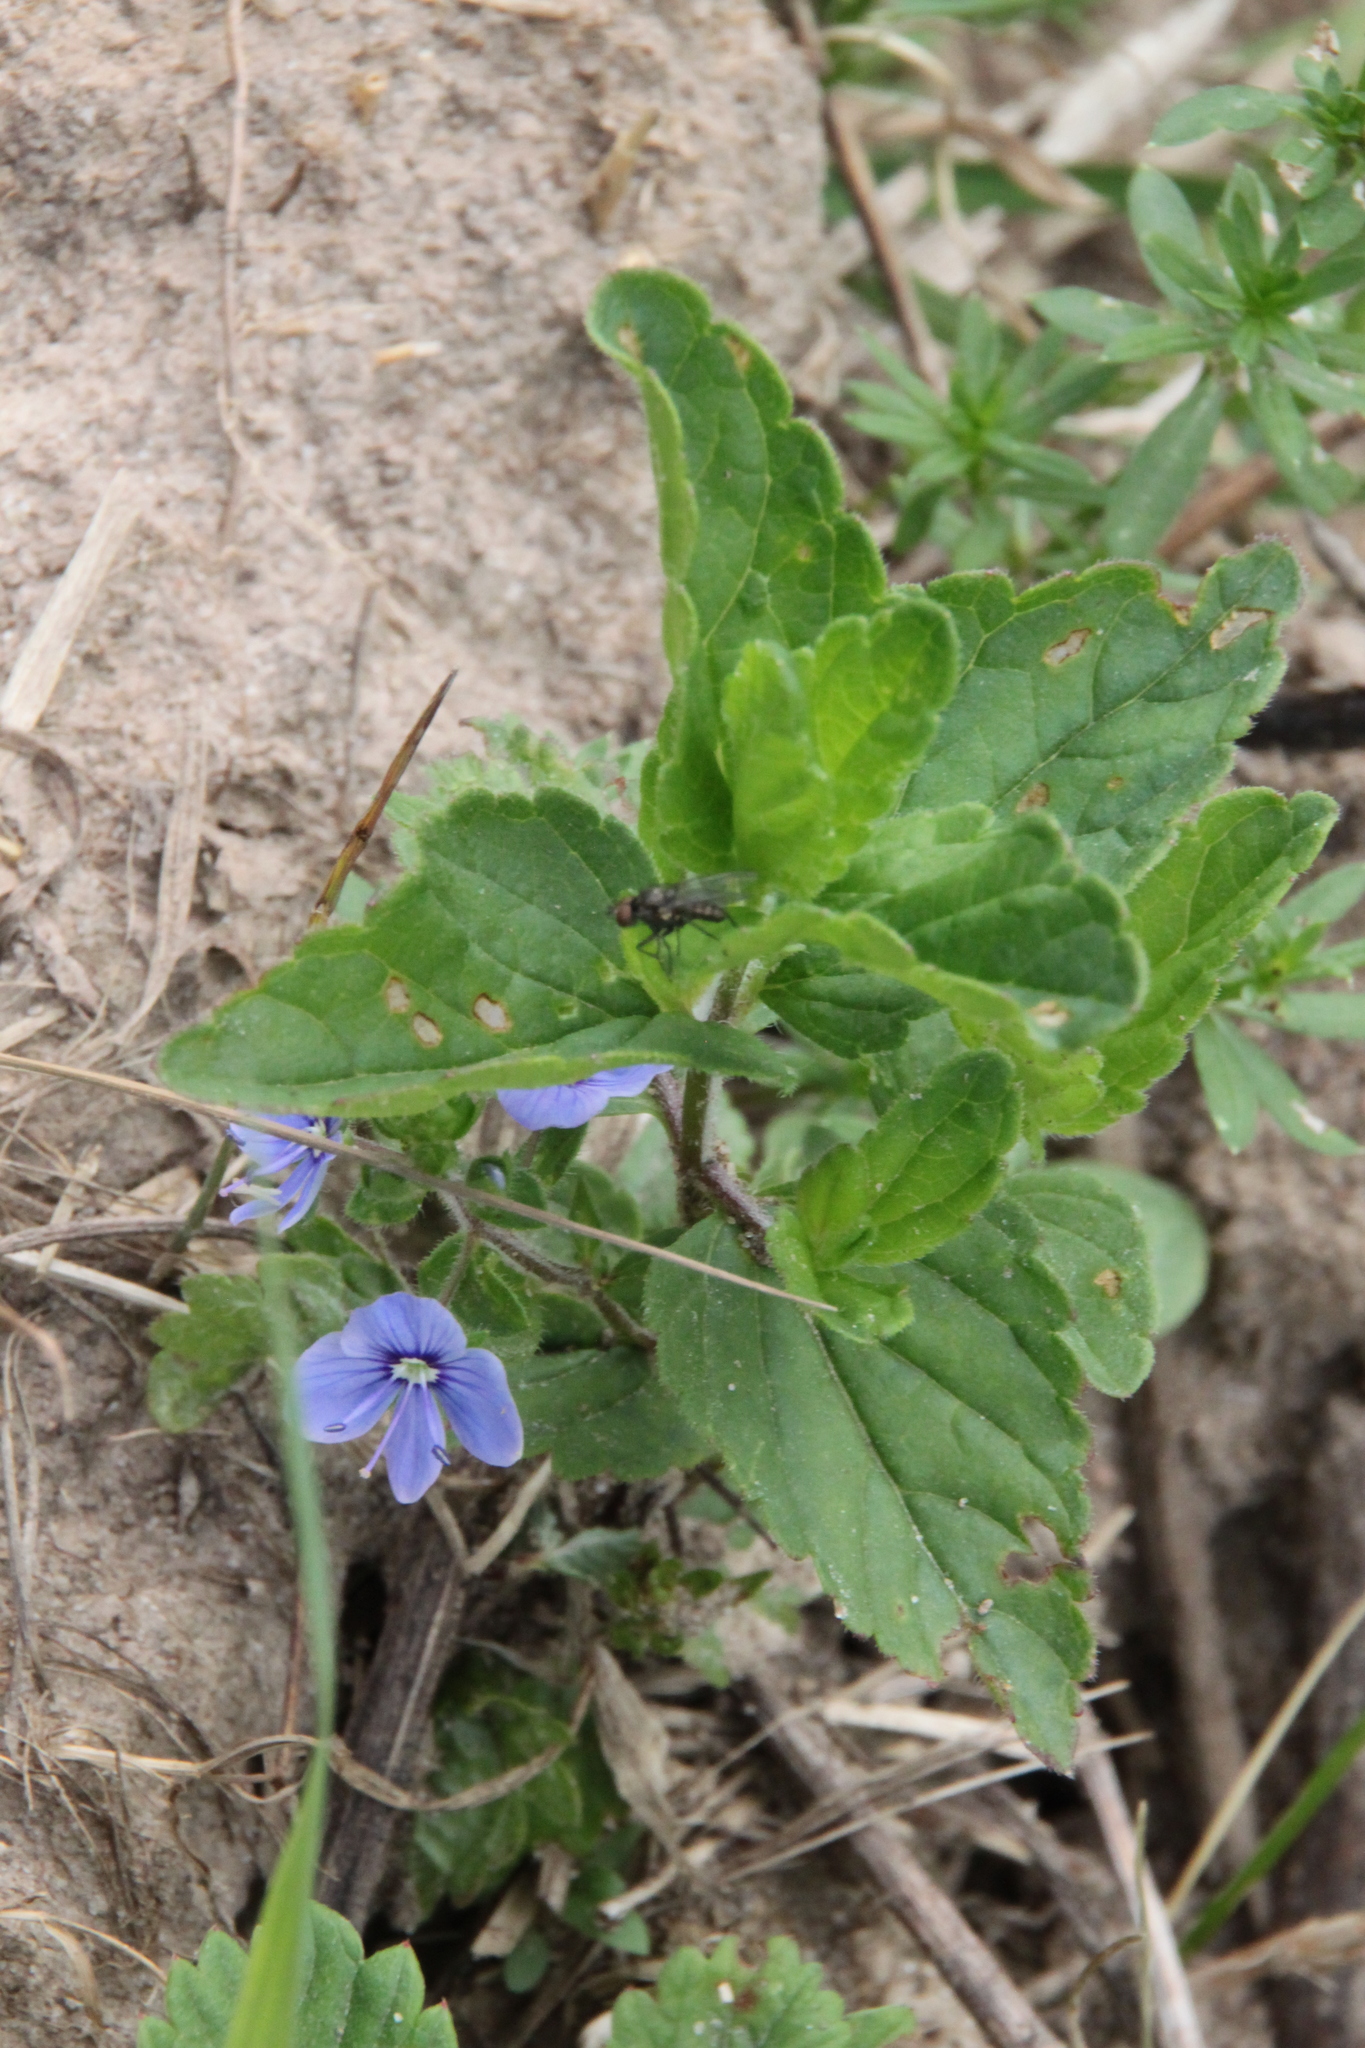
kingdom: Plantae
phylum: Tracheophyta
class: Magnoliopsida
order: Lamiales
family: Plantaginaceae
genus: Veronica
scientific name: Veronica chamaedrys
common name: Germander speedwell
